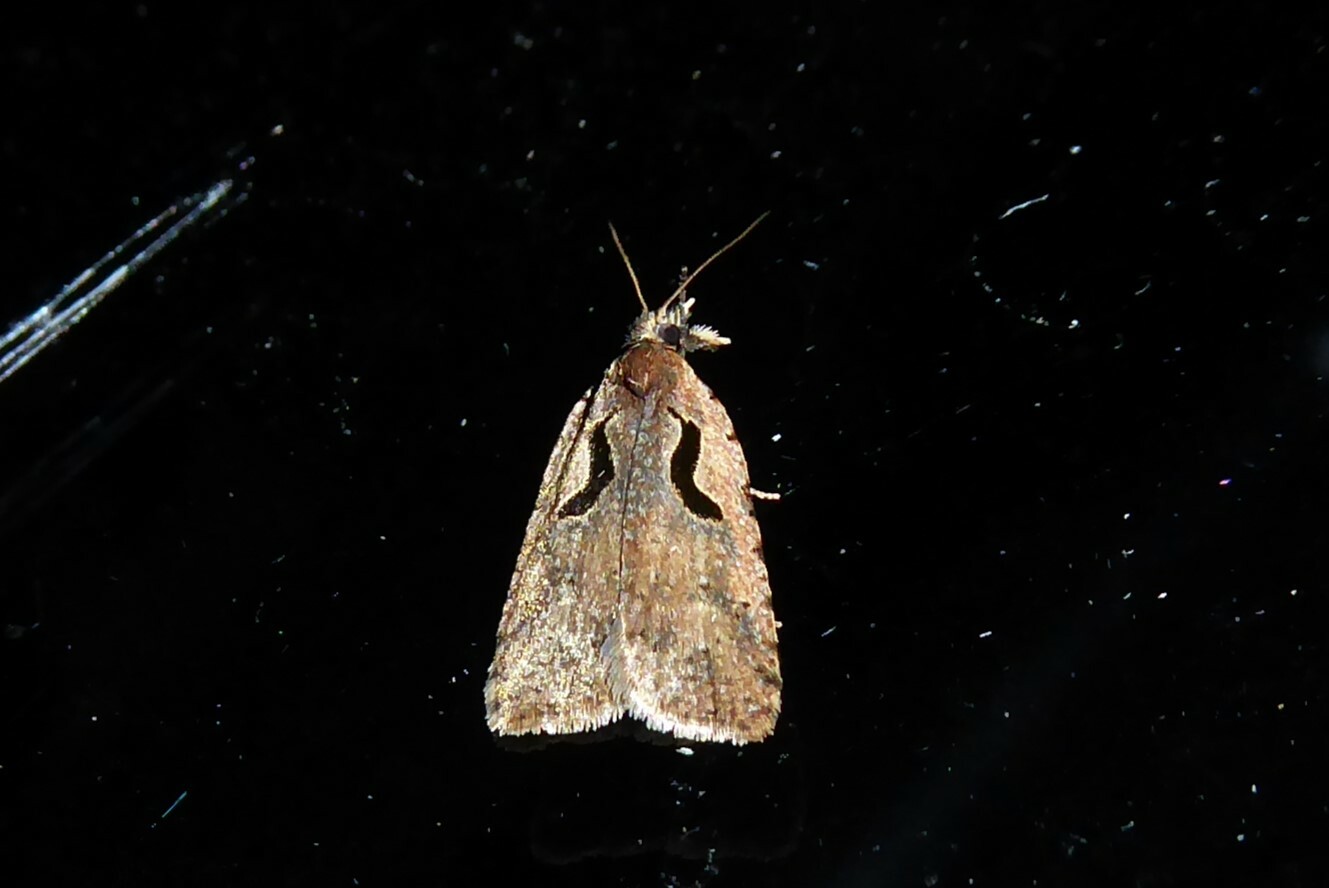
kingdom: Animalia
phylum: Arthropoda
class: Insecta
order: Lepidoptera
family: Tortricidae
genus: Cnephasia
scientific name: Cnephasia jactatana
